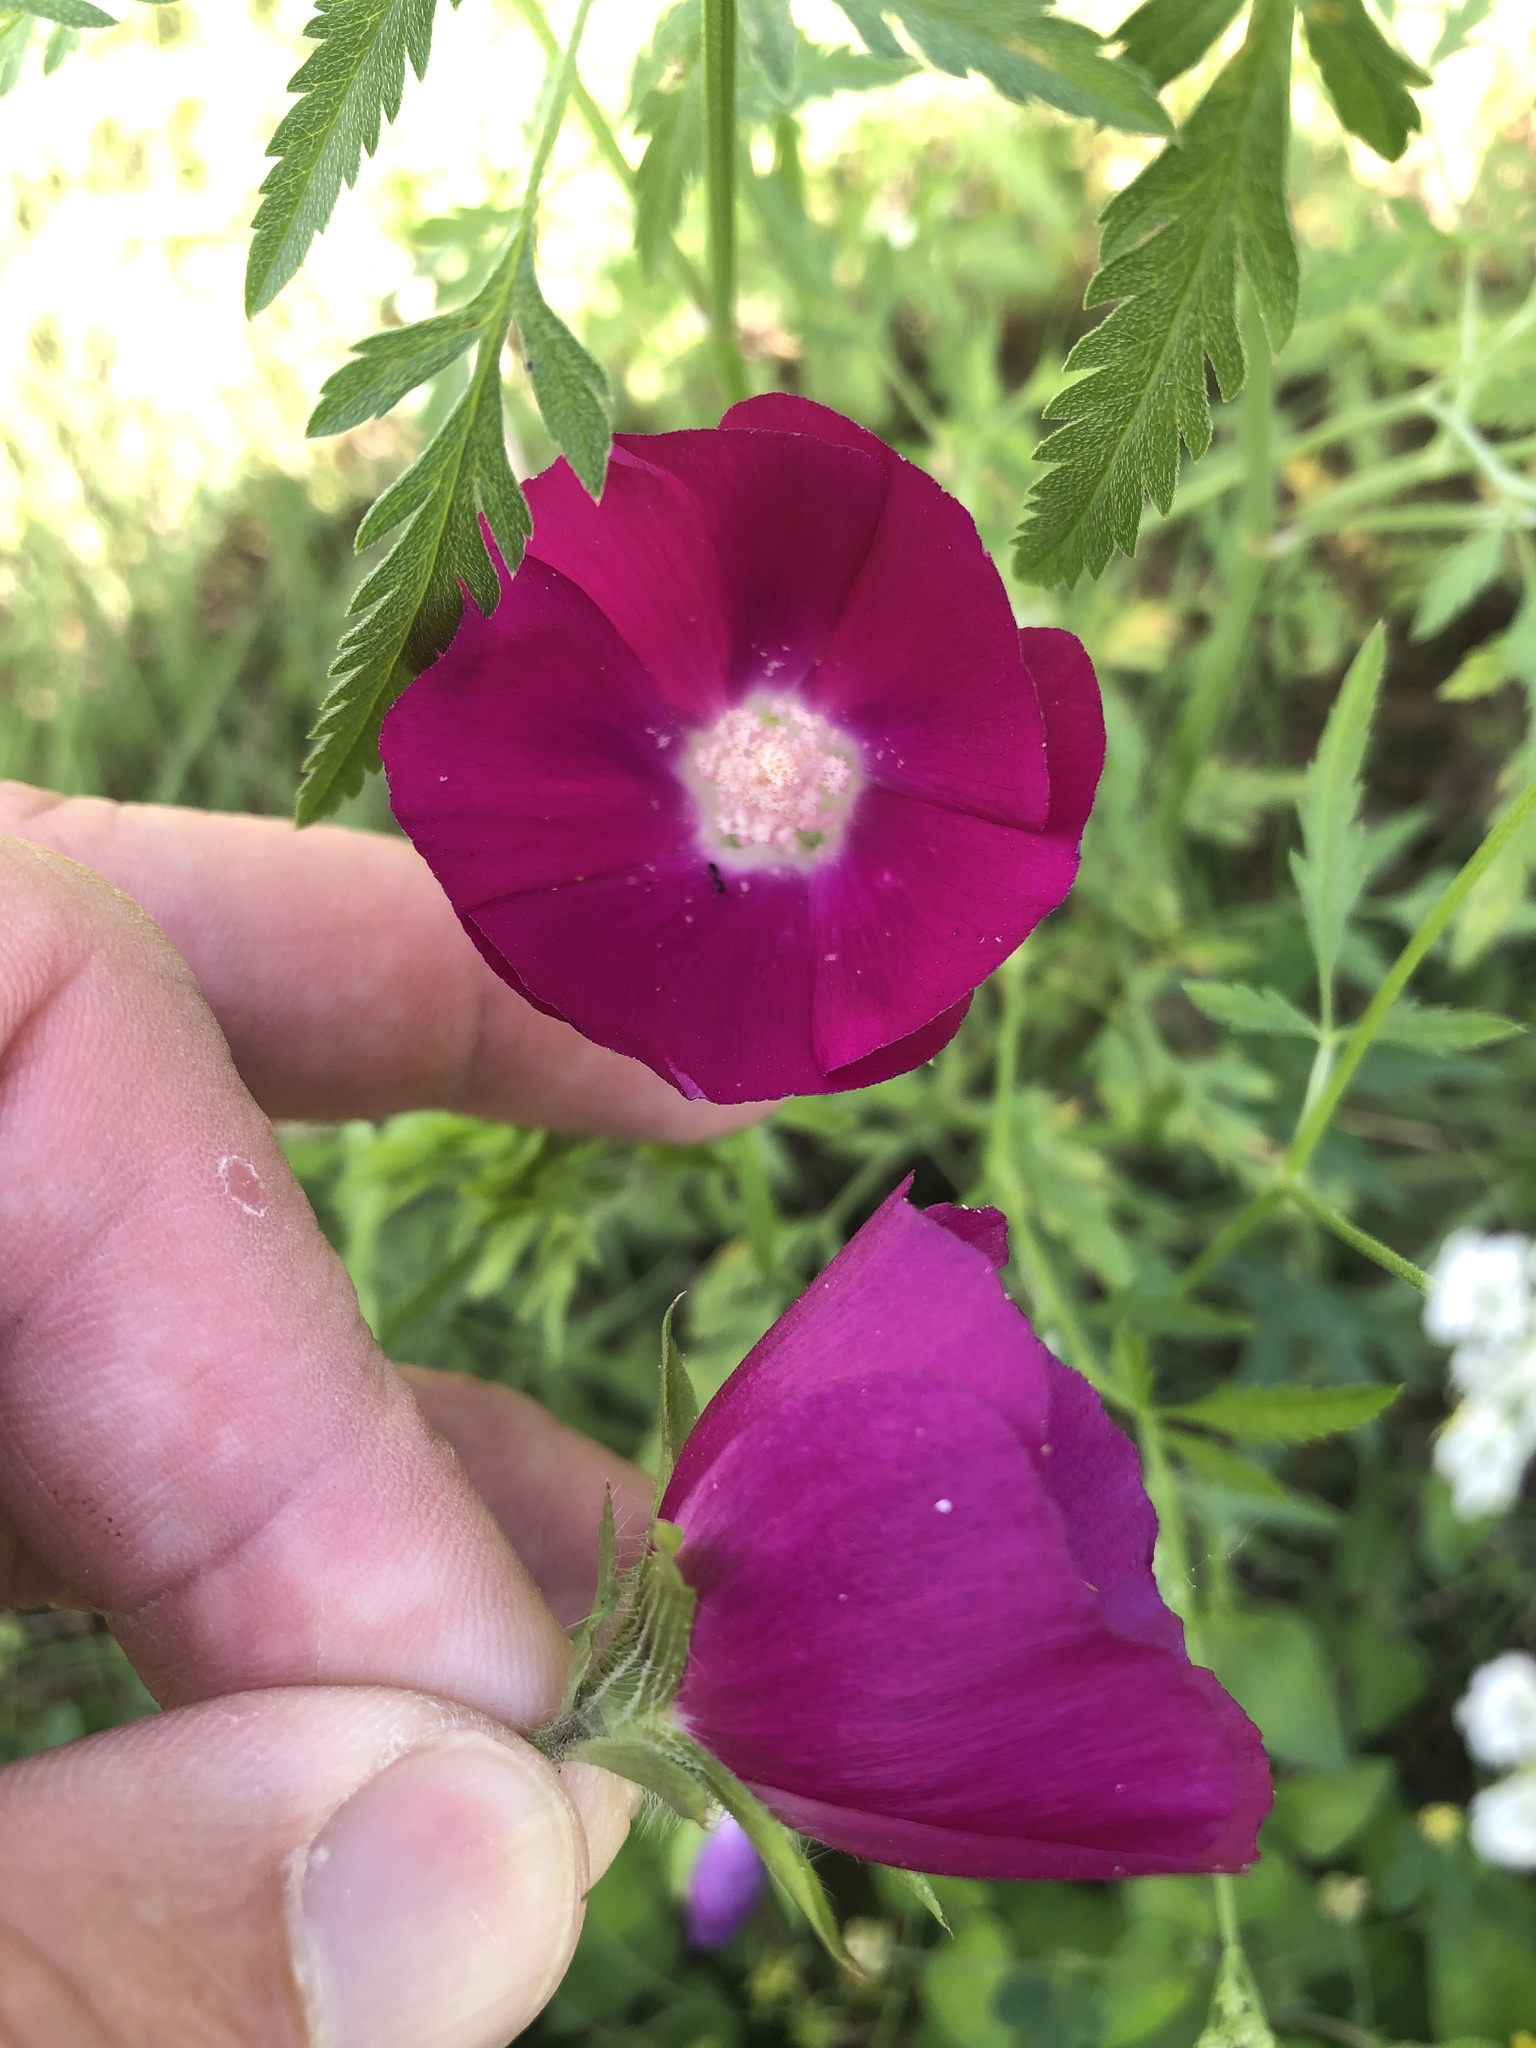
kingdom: Plantae
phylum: Tracheophyta
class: Magnoliopsida
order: Malvales
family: Malvaceae
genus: Callirhoe
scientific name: Callirhoe involucrata
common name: Purple poppy-mallow
